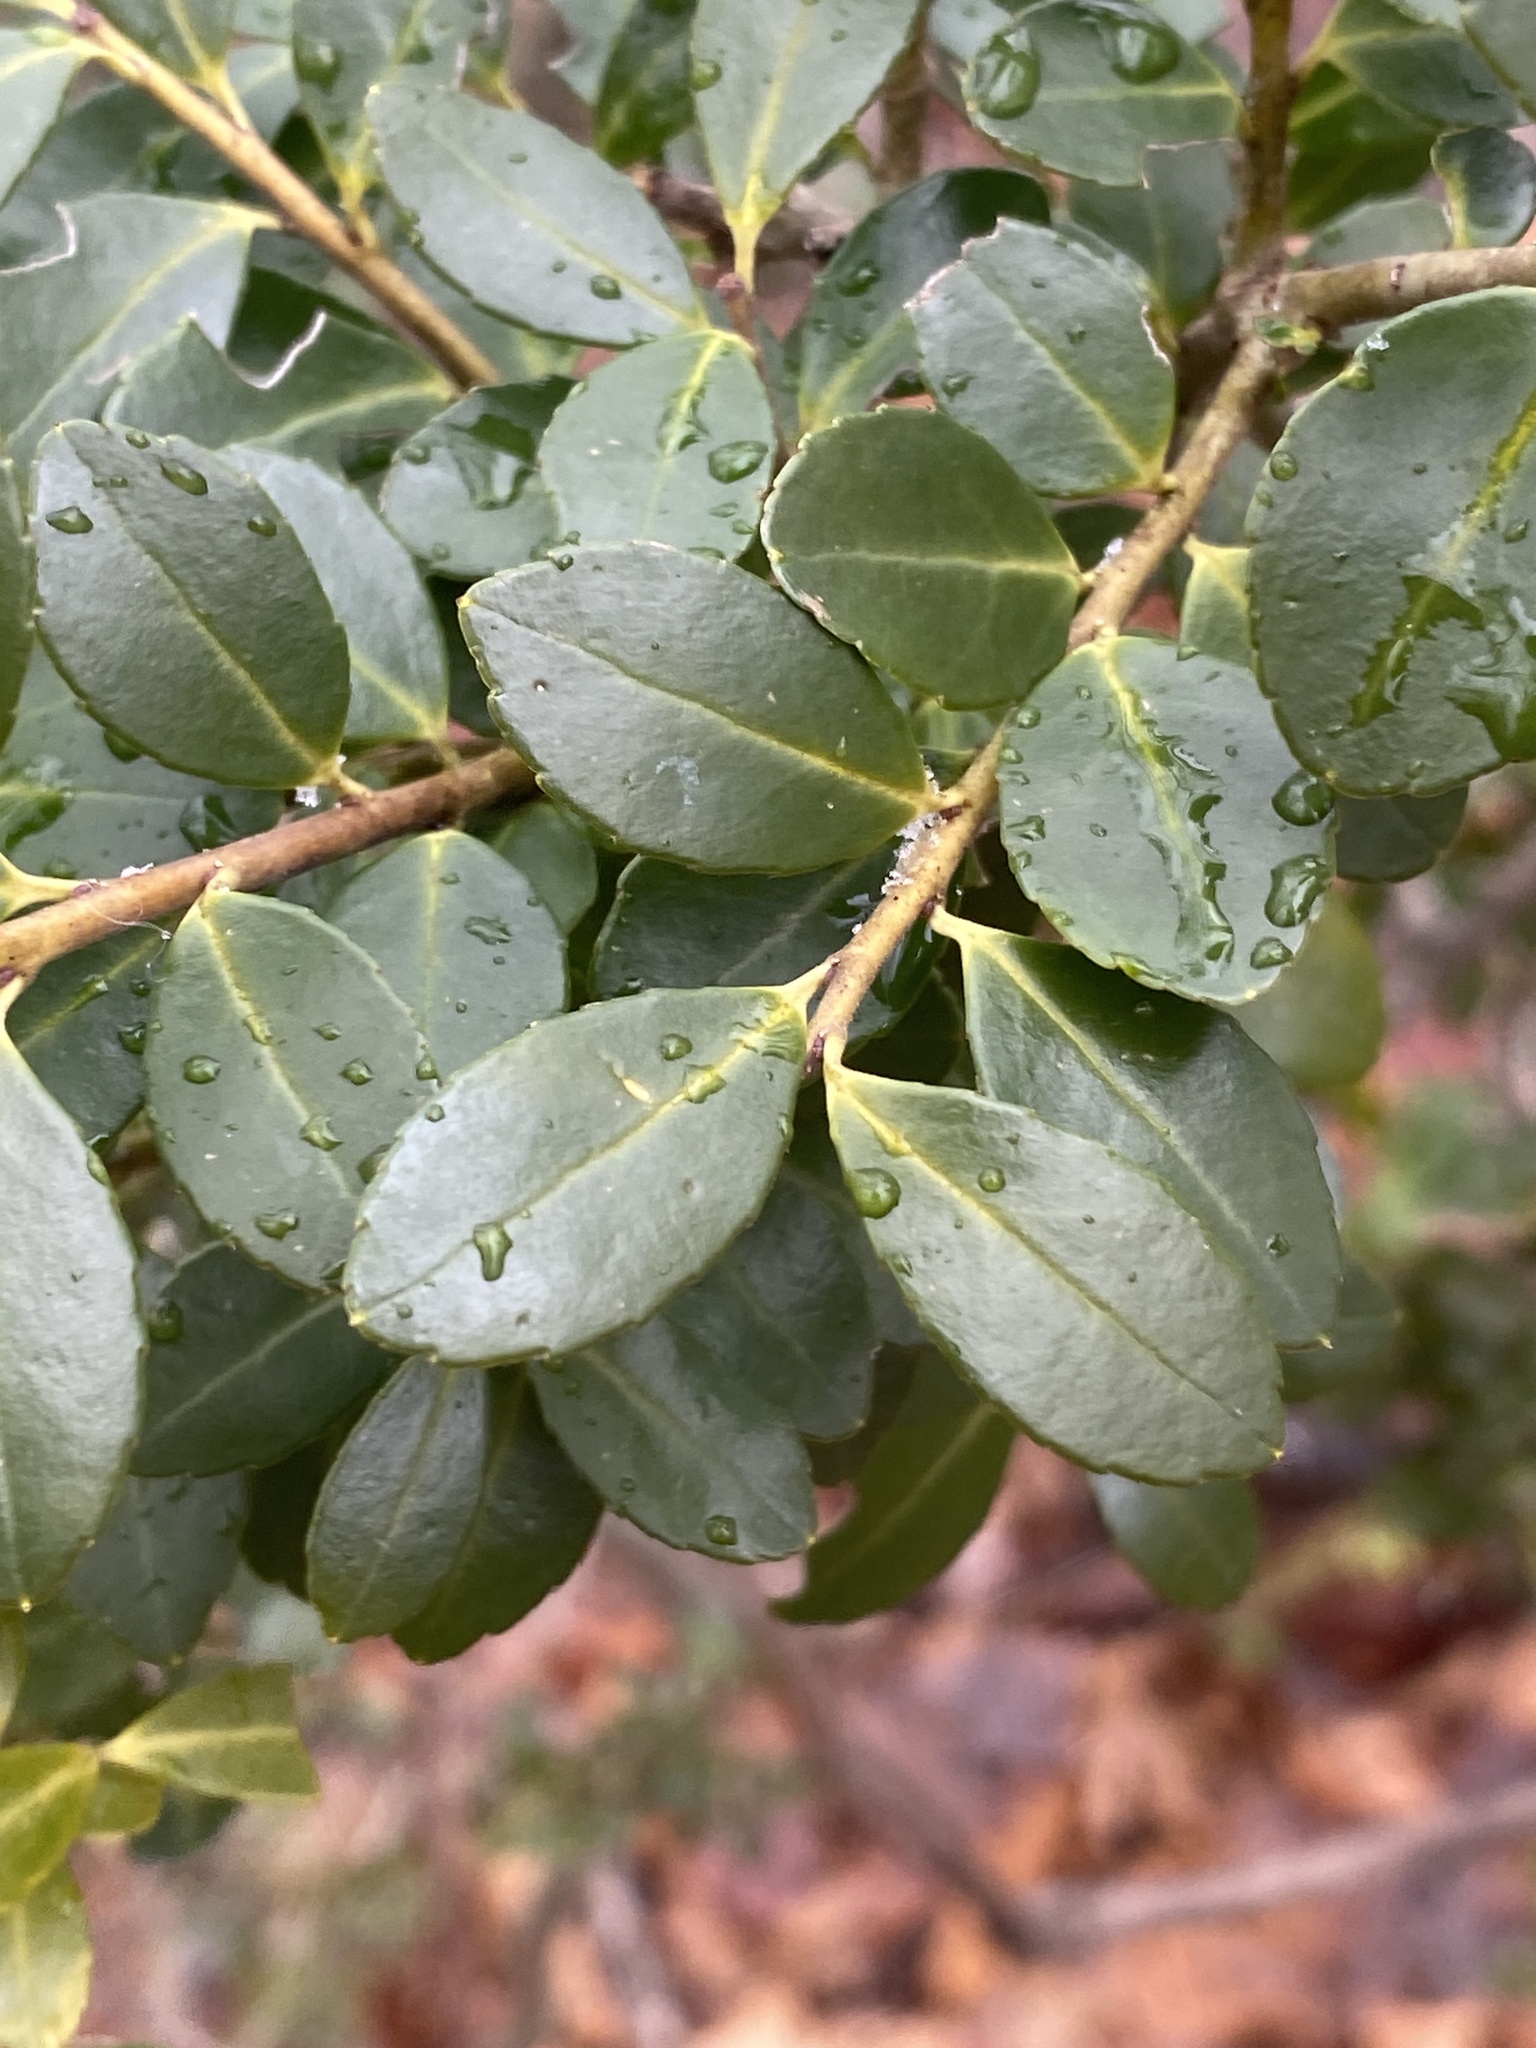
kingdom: Plantae
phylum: Tracheophyta
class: Magnoliopsida
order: Aquifoliales
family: Aquifoliaceae
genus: Ilex
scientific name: Ilex crenata
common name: Japanese holly
